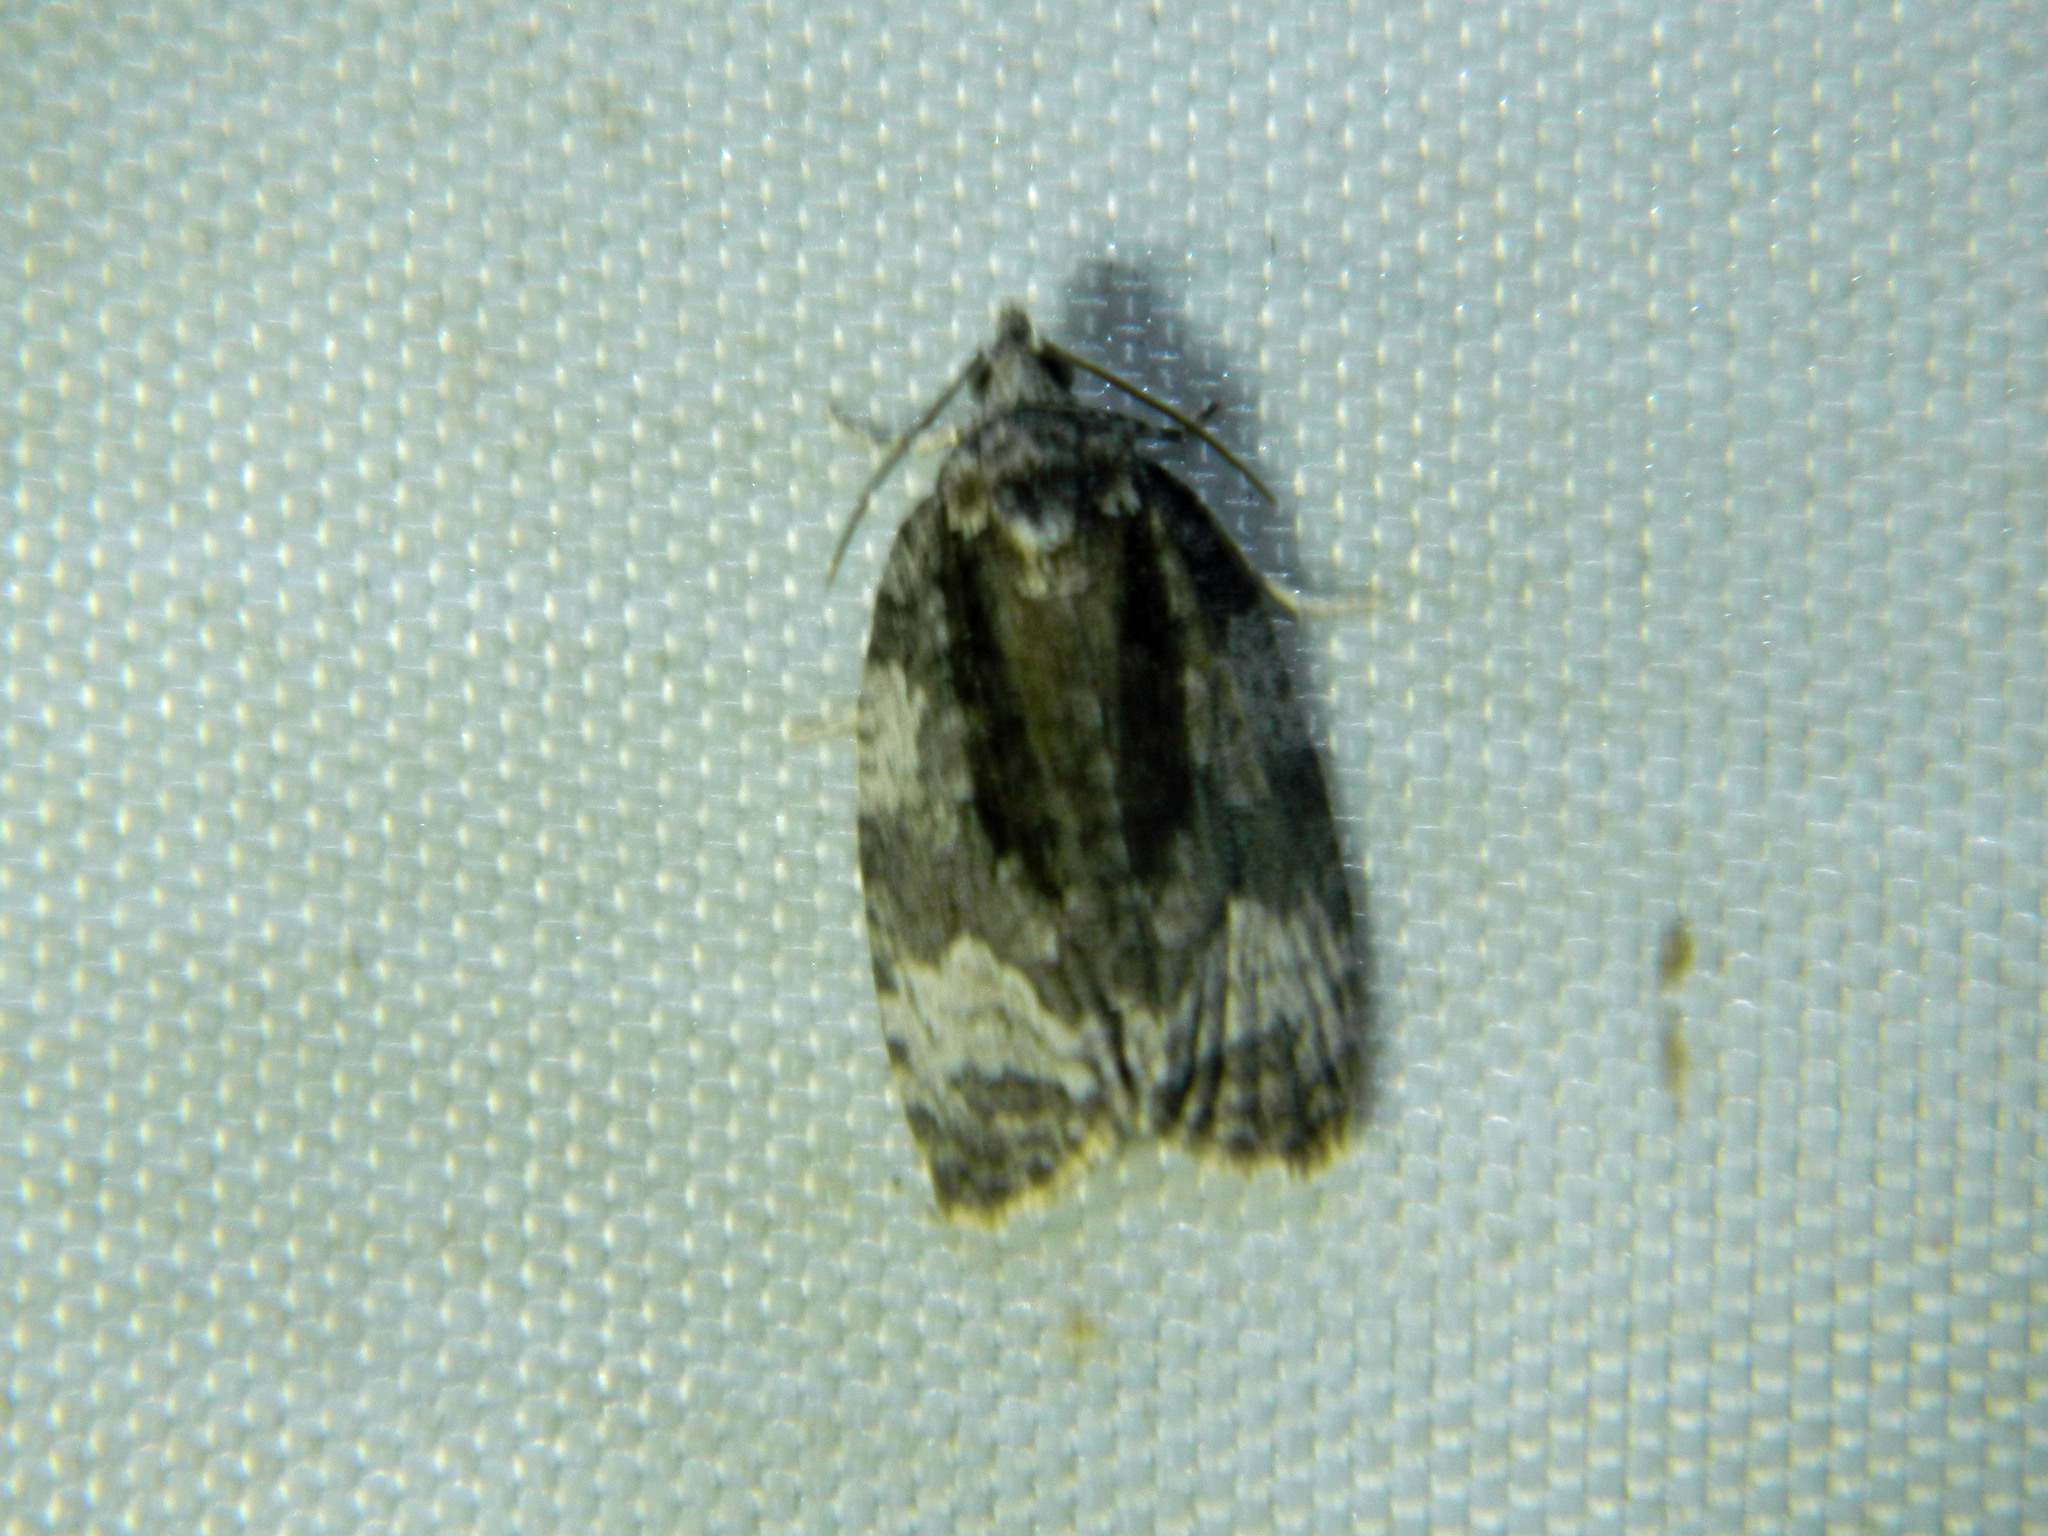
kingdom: Animalia
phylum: Arthropoda
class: Insecta
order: Lepidoptera
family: Tortricidae
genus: Apotomis
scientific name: Apotomis removana
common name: Green aspen leafroller
